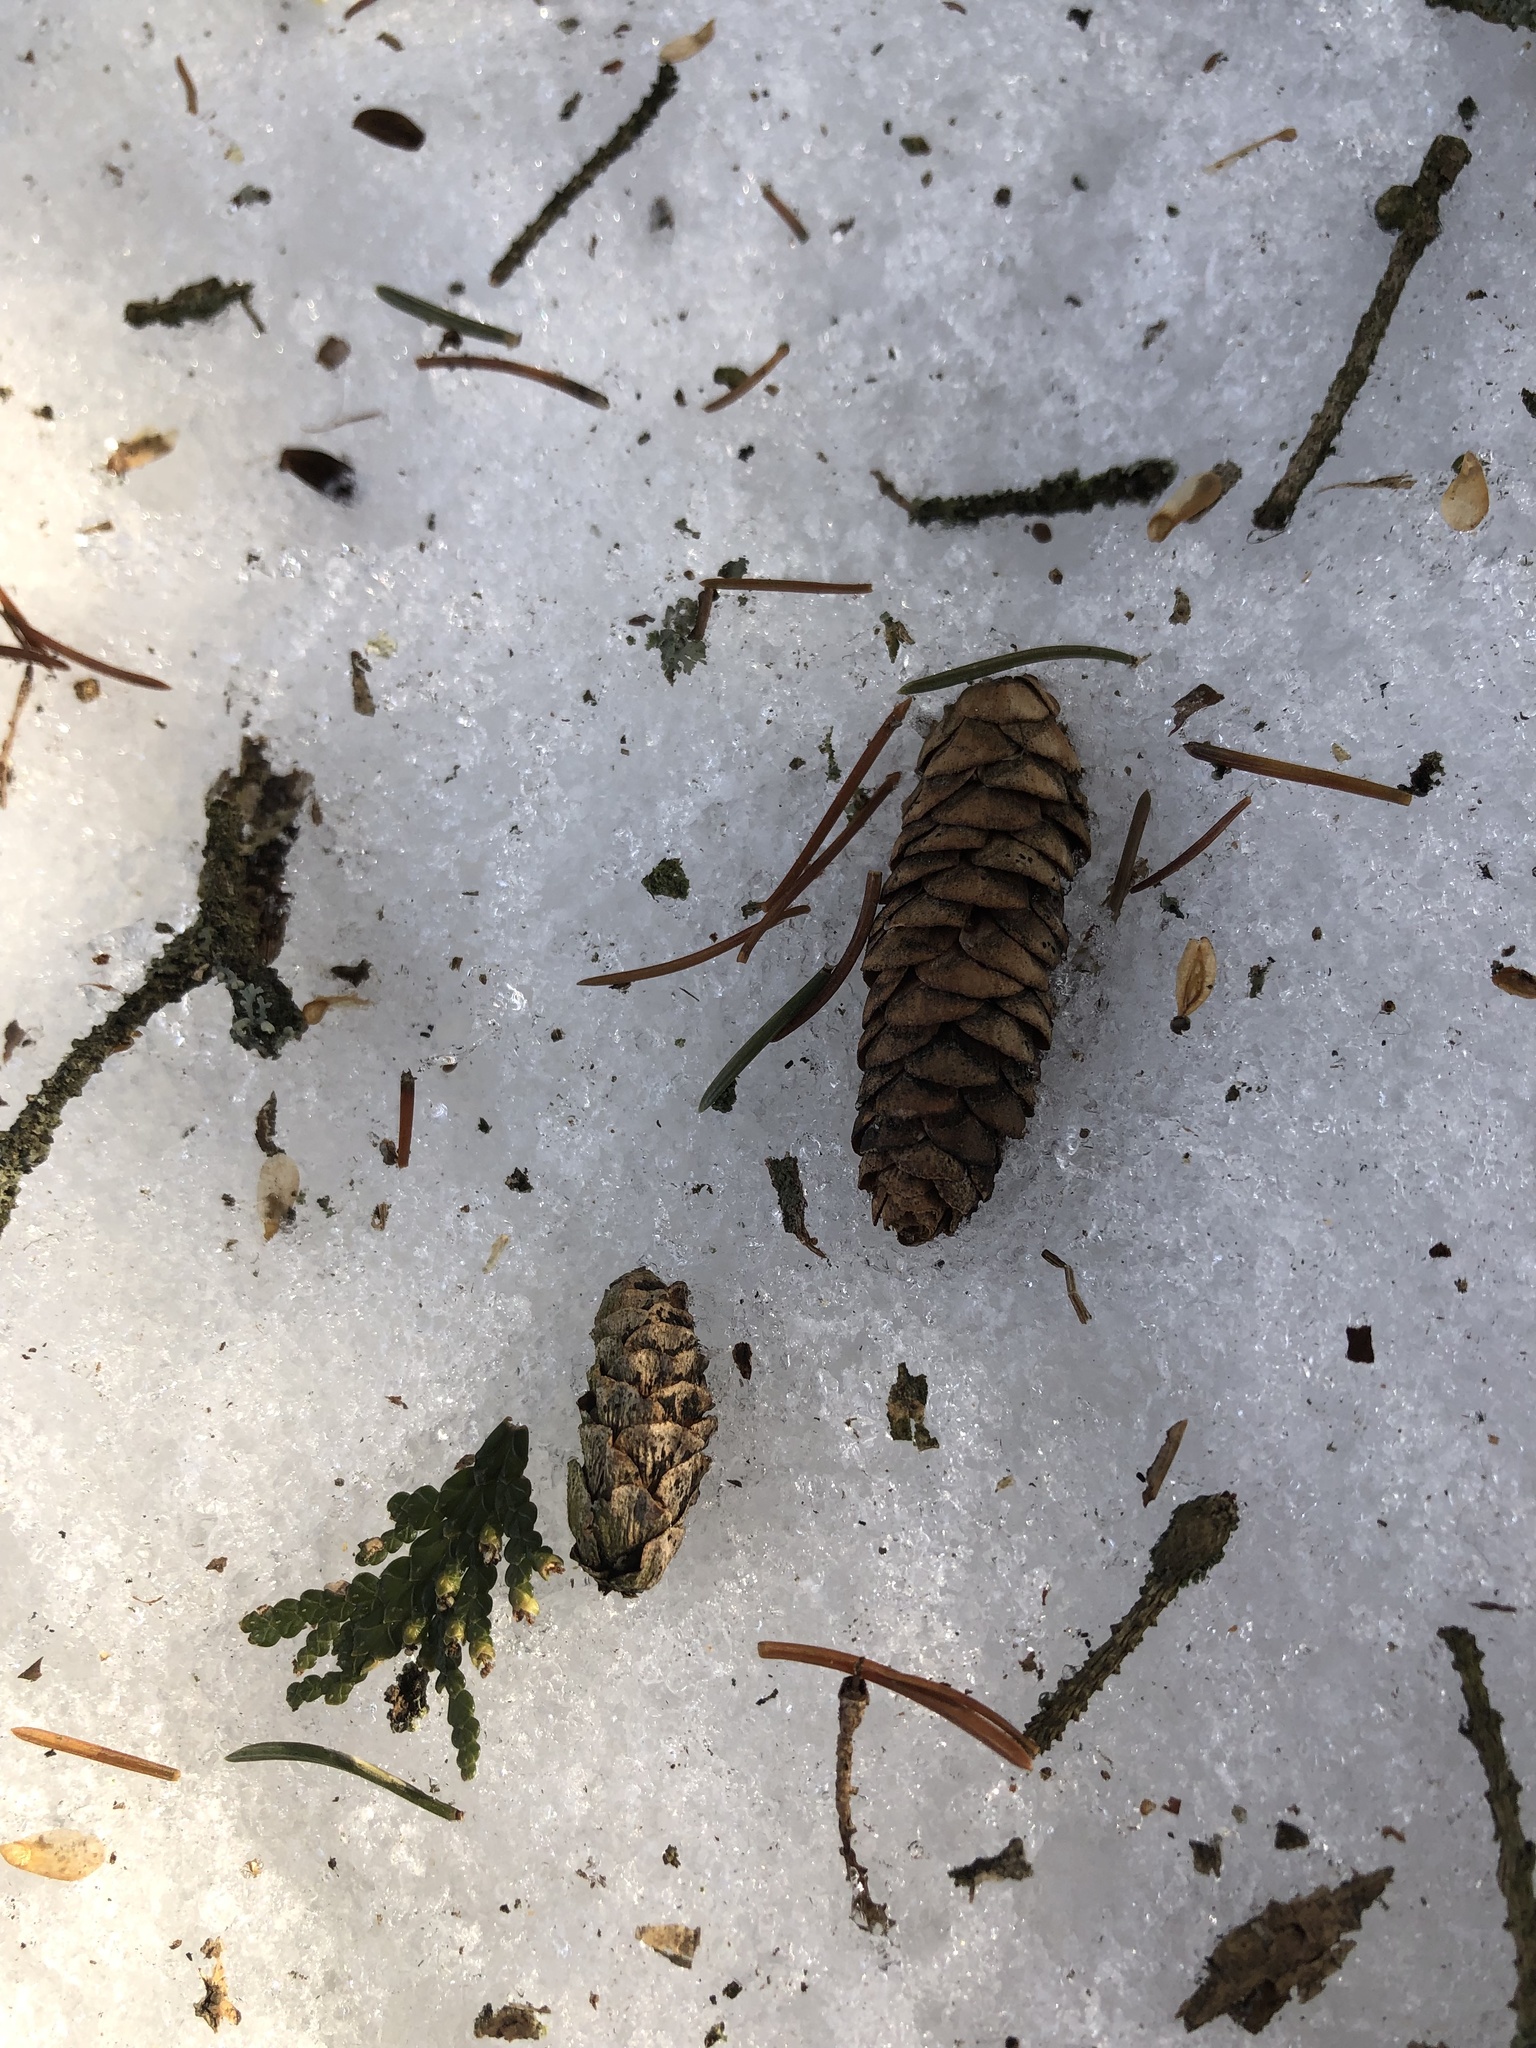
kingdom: Plantae
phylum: Tracheophyta
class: Pinopsida
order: Pinales
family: Pinaceae
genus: Picea
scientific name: Picea glauca
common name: White spruce
